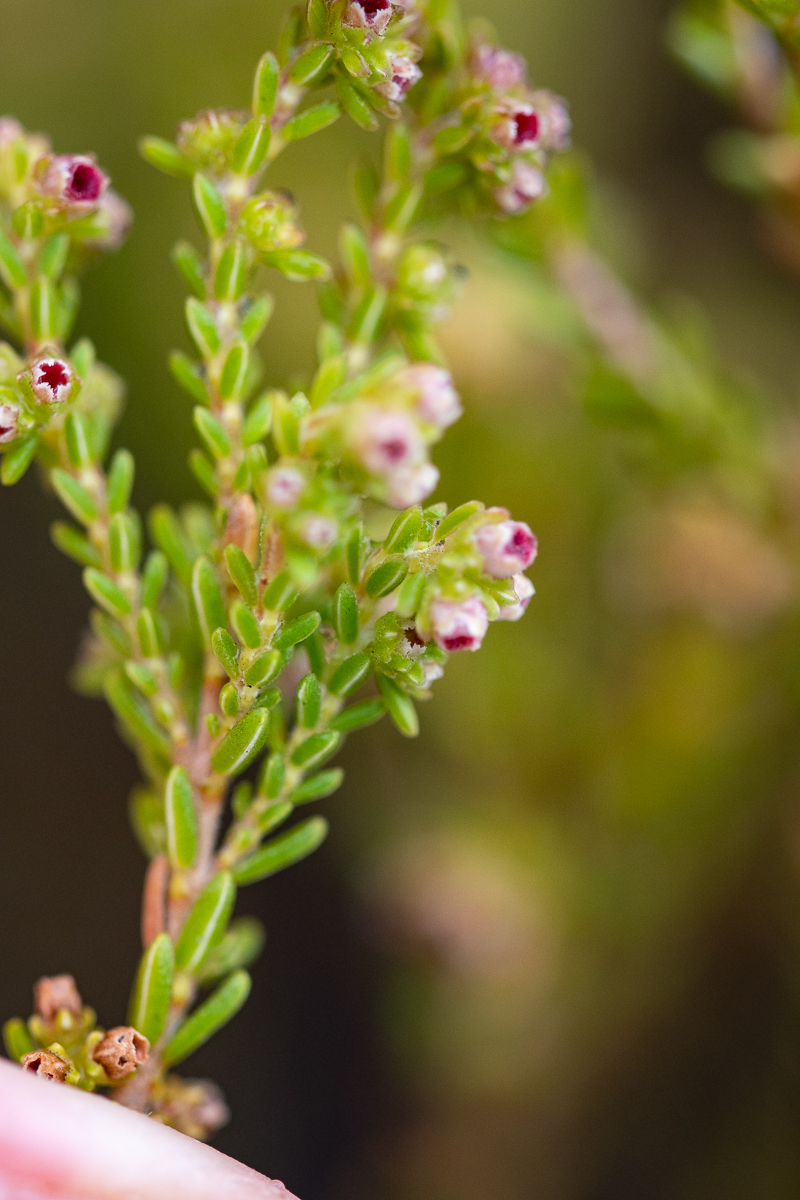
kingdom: Plantae
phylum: Tracheophyta
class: Magnoliopsida
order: Ericales
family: Ericaceae
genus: Erica
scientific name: Erica serrata
